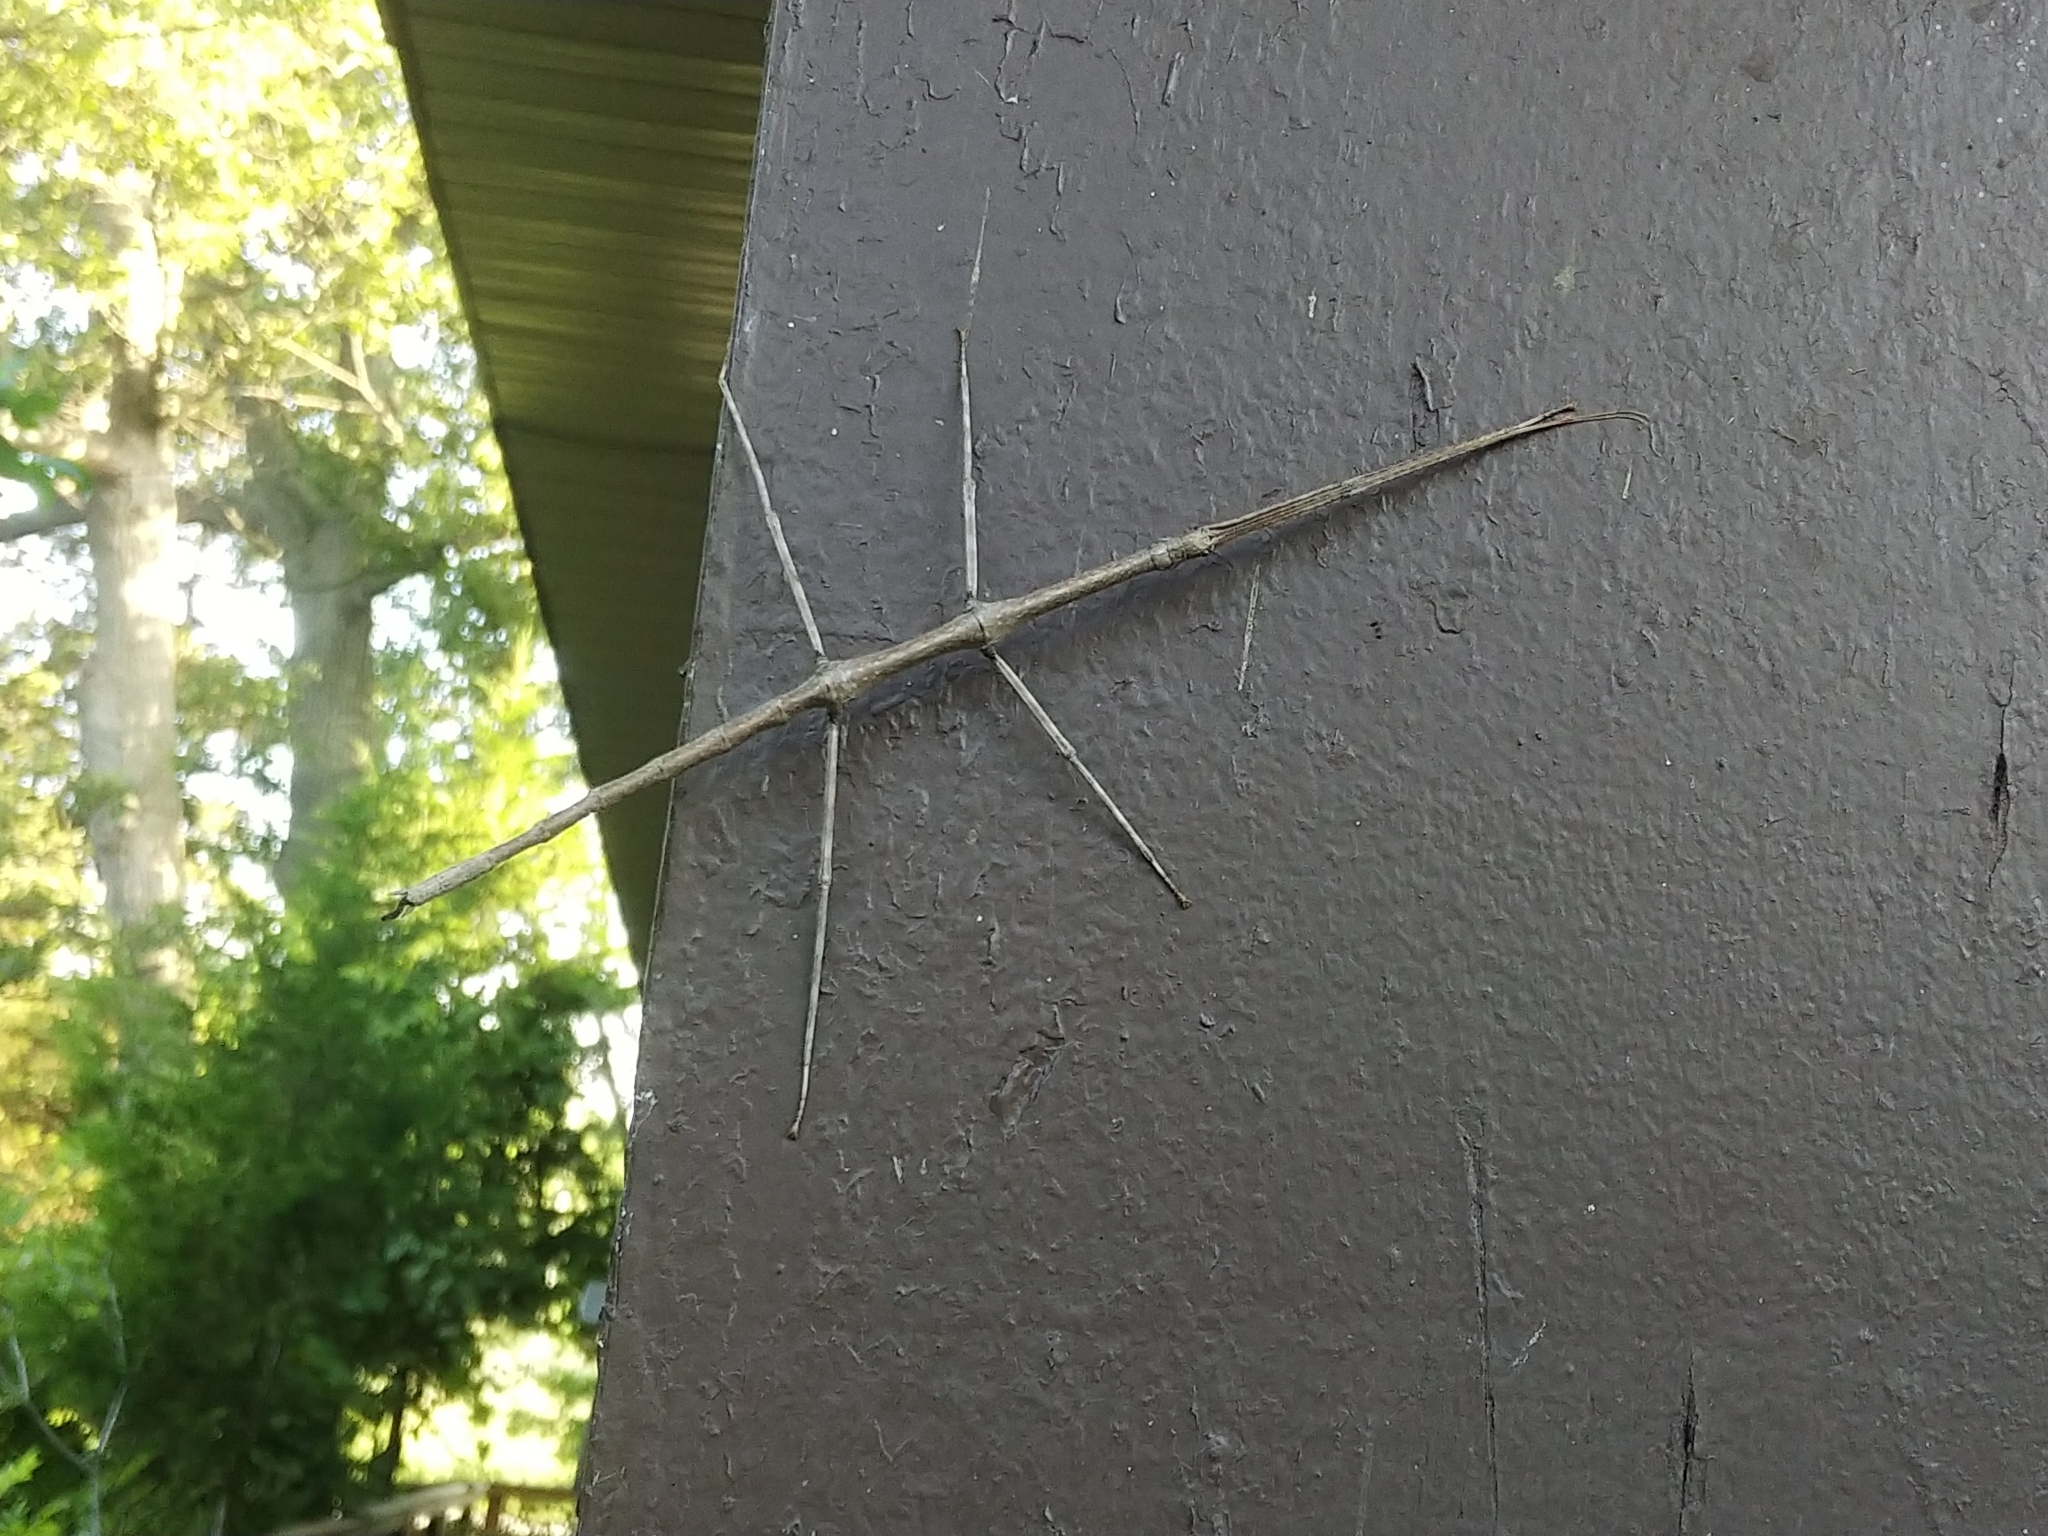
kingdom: Animalia
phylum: Arthropoda
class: Insecta
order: Phasmida
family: Diapheromeridae
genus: Diapheromera
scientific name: Diapheromera femorata
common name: Common american walkingstick
